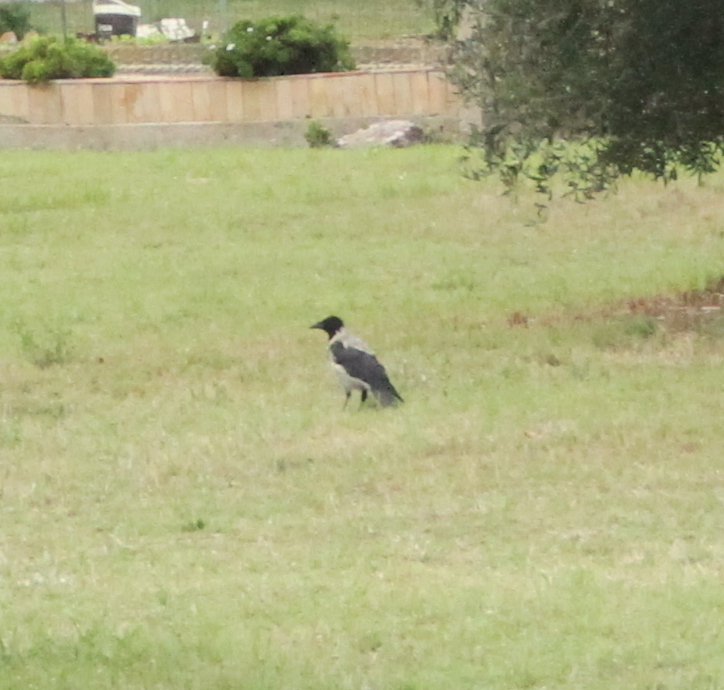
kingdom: Animalia
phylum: Chordata
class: Aves
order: Passeriformes
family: Corvidae
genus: Corvus
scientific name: Corvus cornix
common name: Hooded crow
